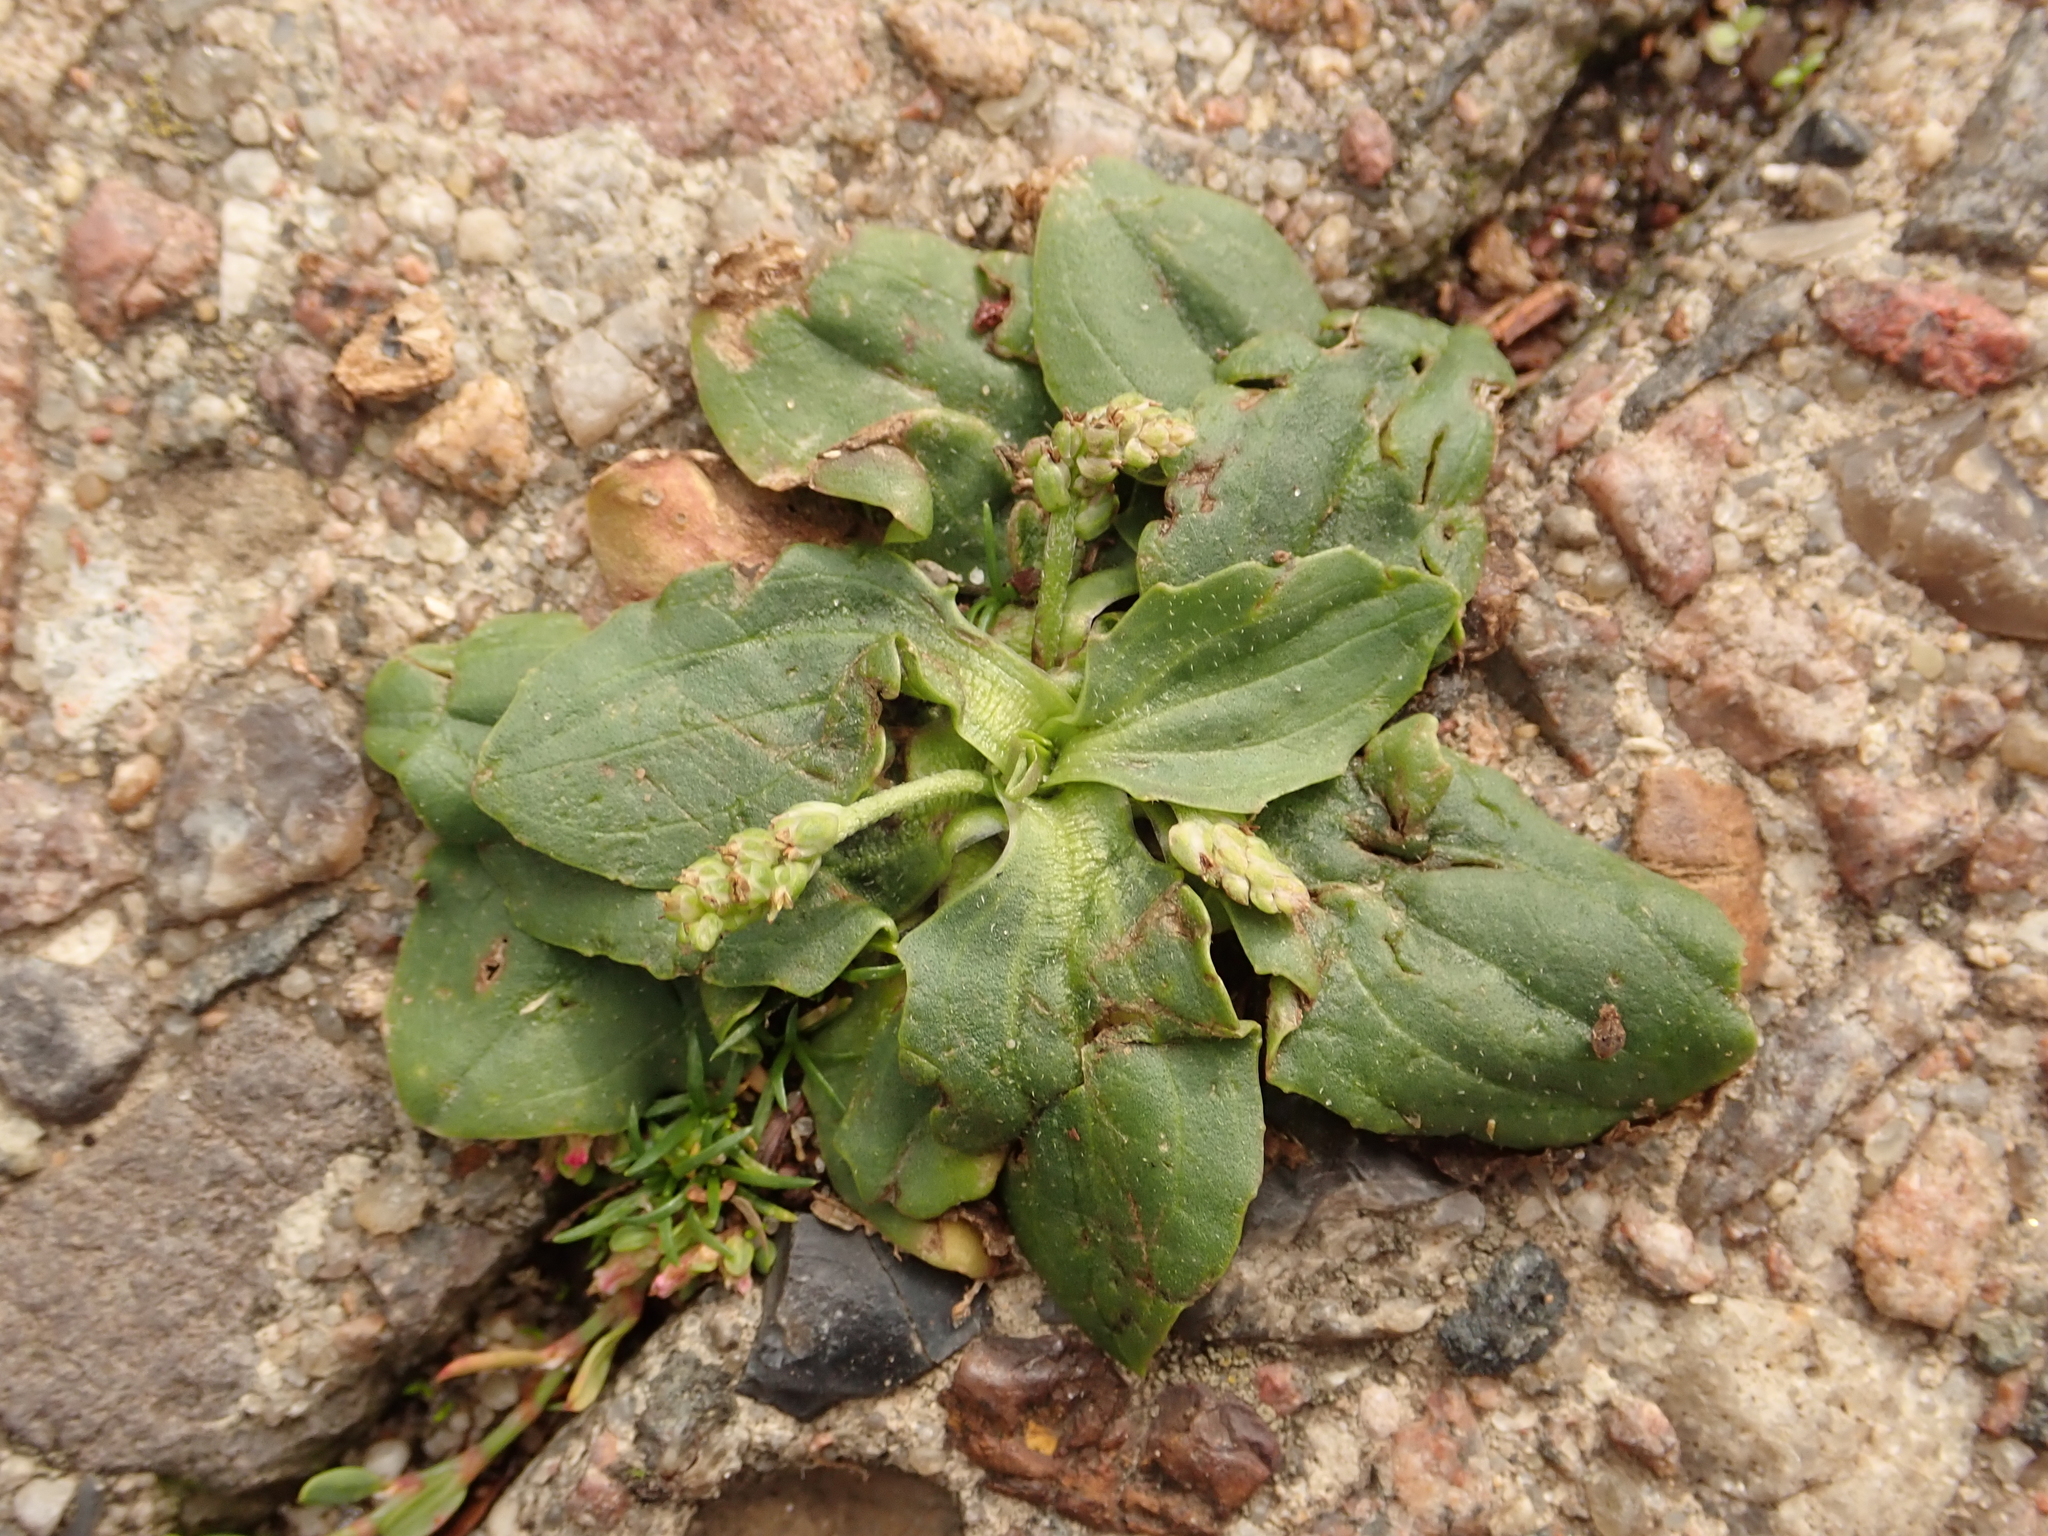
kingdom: Plantae
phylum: Tracheophyta
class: Magnoliopsida
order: Lamiales
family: Plantaginaceae
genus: Plantago
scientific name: Plantago major
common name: Common plantain
